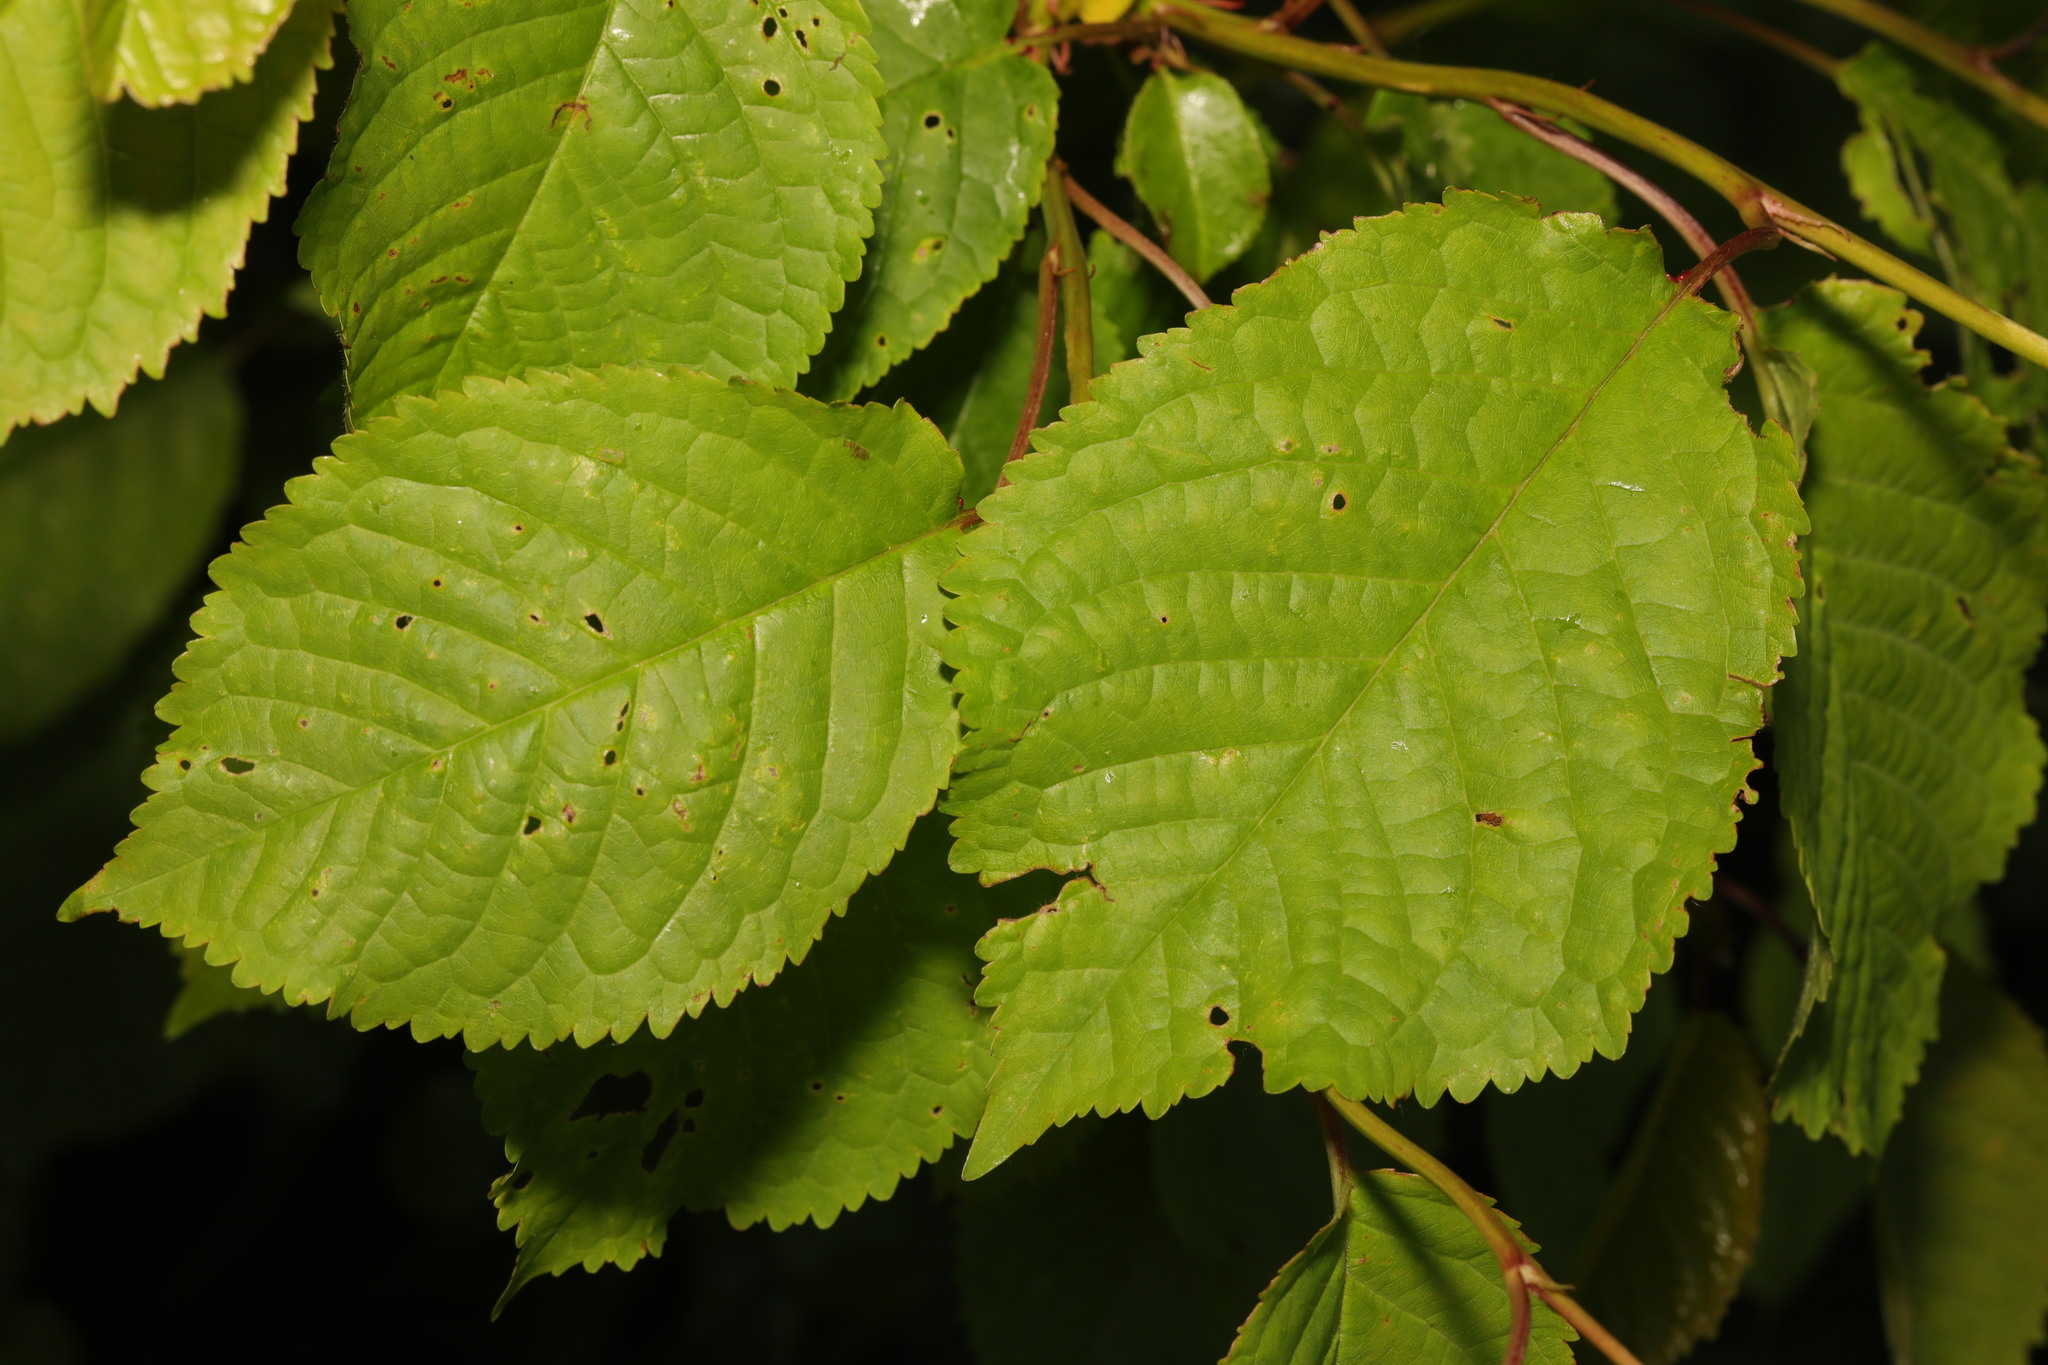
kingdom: Plantae
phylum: Tracheophyta
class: Magnoliopsida
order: Rosales
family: Rosaceae
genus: Prunus
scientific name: Prunus avium
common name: Sweet cherry
